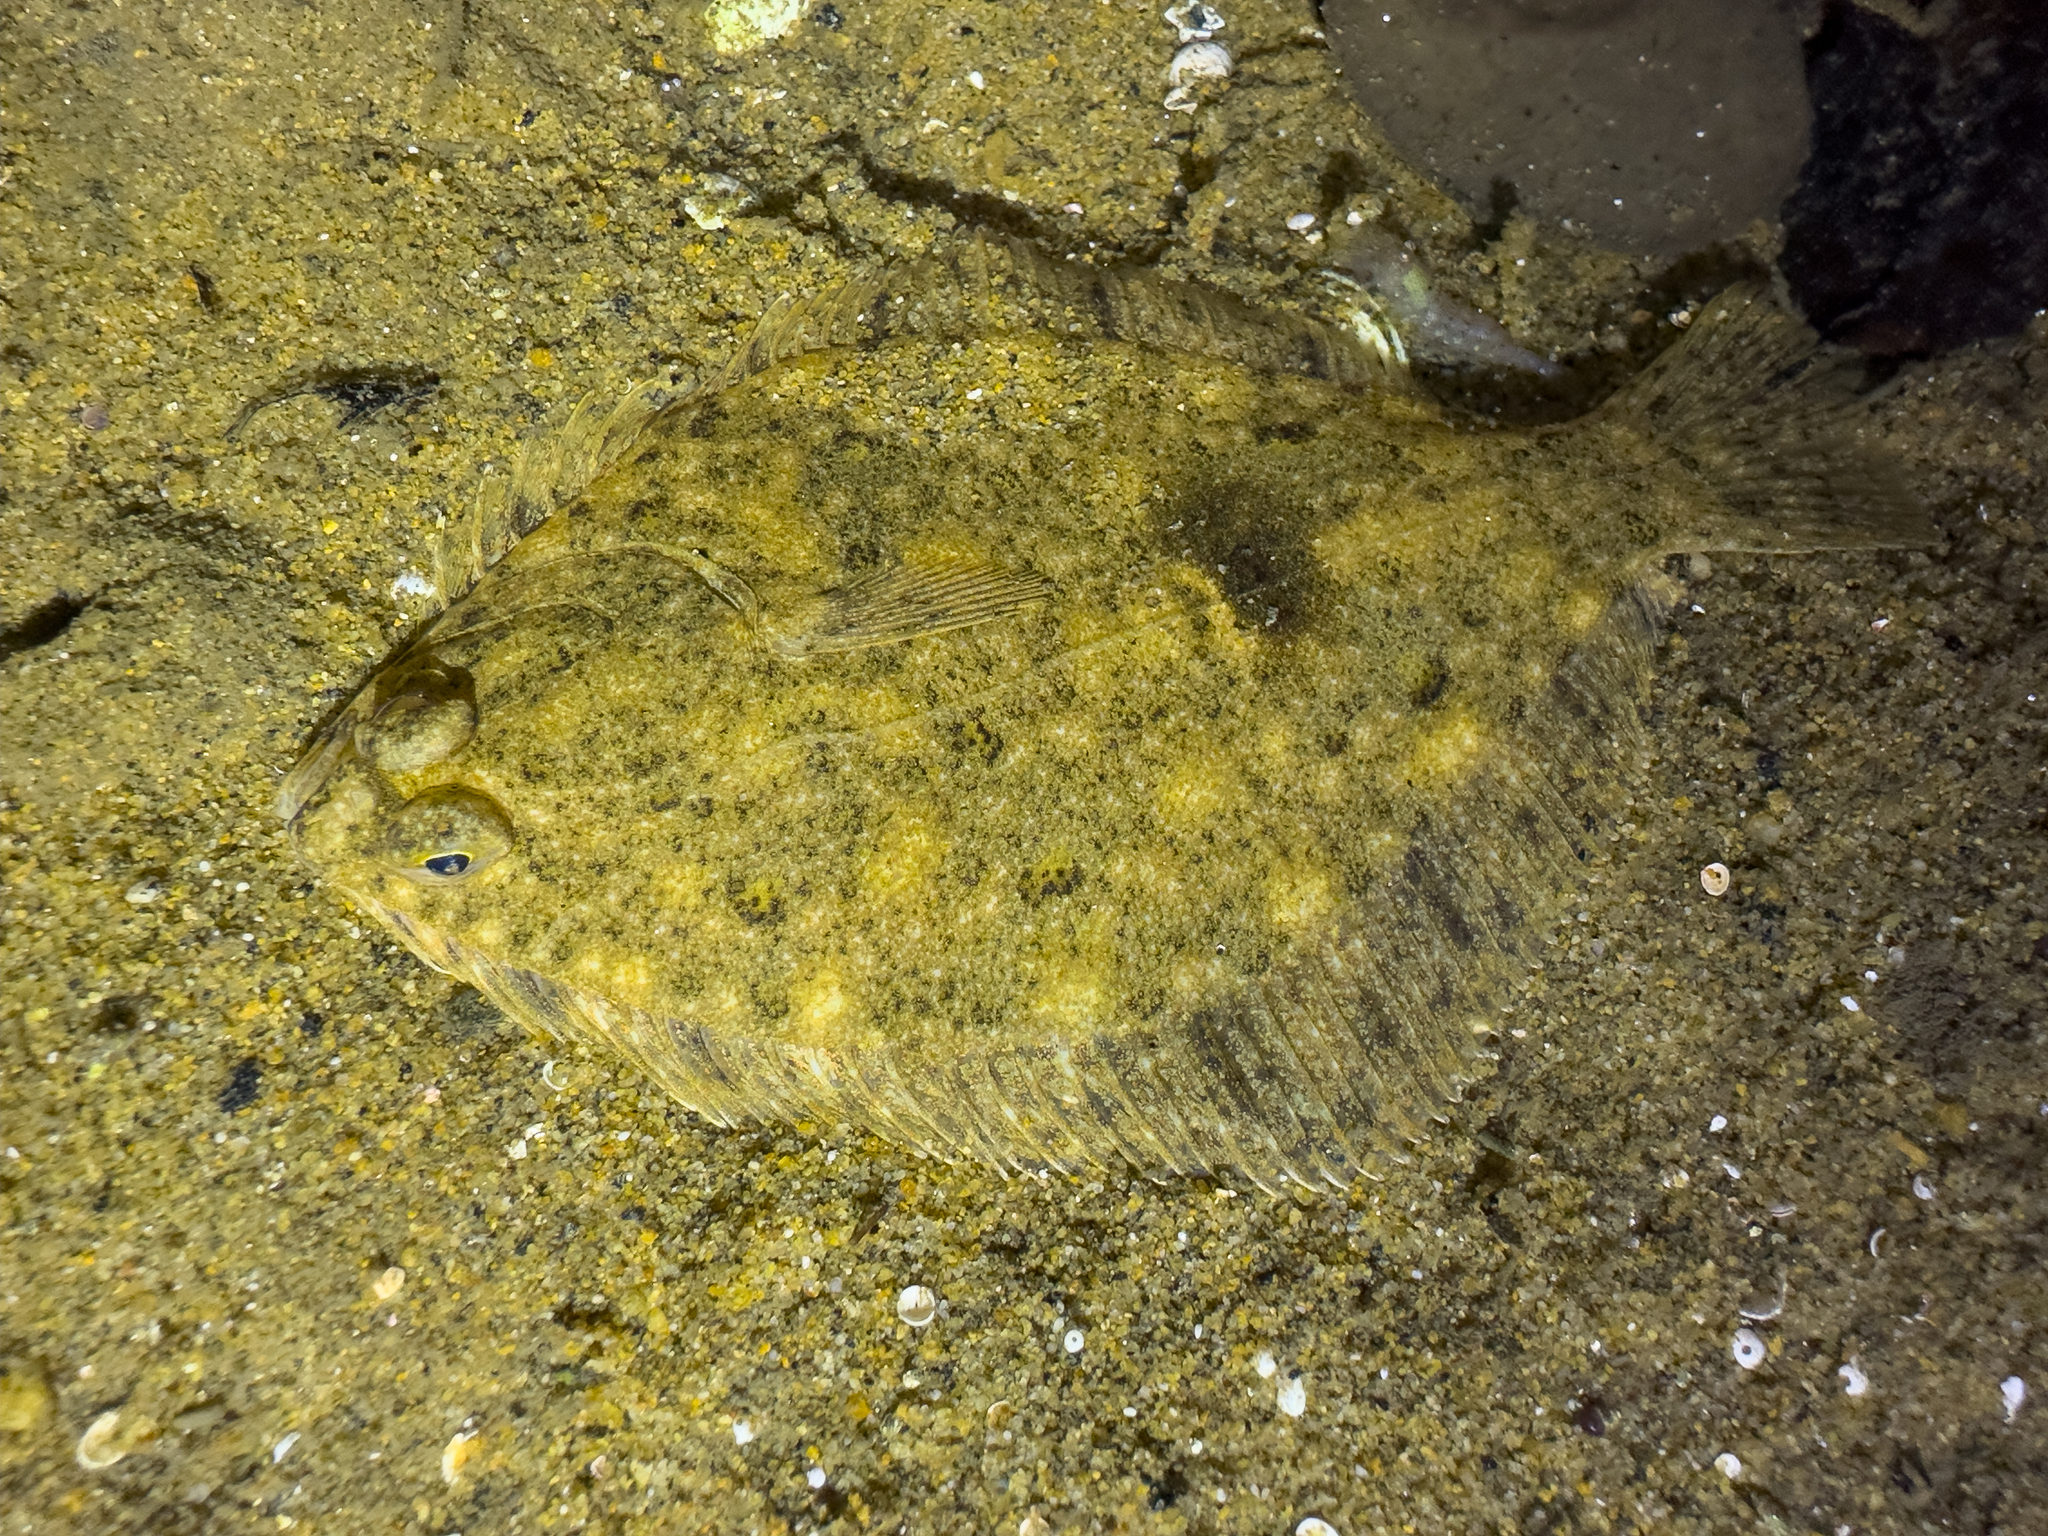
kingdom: Animalia
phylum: Chordata
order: Pleuronectiformes
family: Pleuronectidae
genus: Rhombosolea
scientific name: Rhombosolea plebeia
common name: Dab
